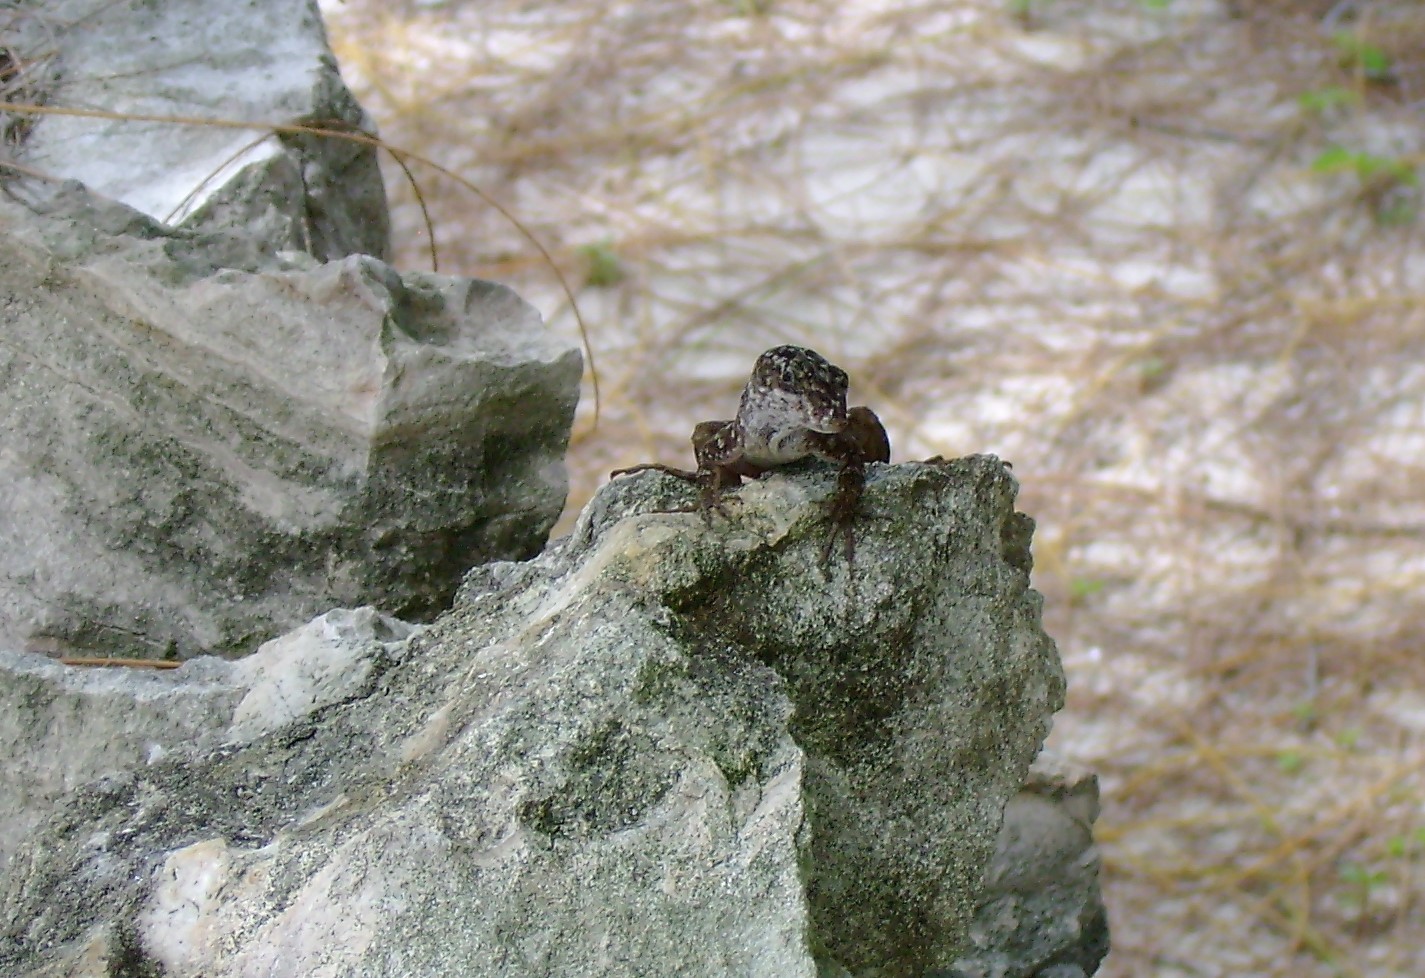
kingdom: Animalia
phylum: Chordata
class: Squamata
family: Dactyloidae
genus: Anolis
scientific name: Anolis sagrei
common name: Brown anole
